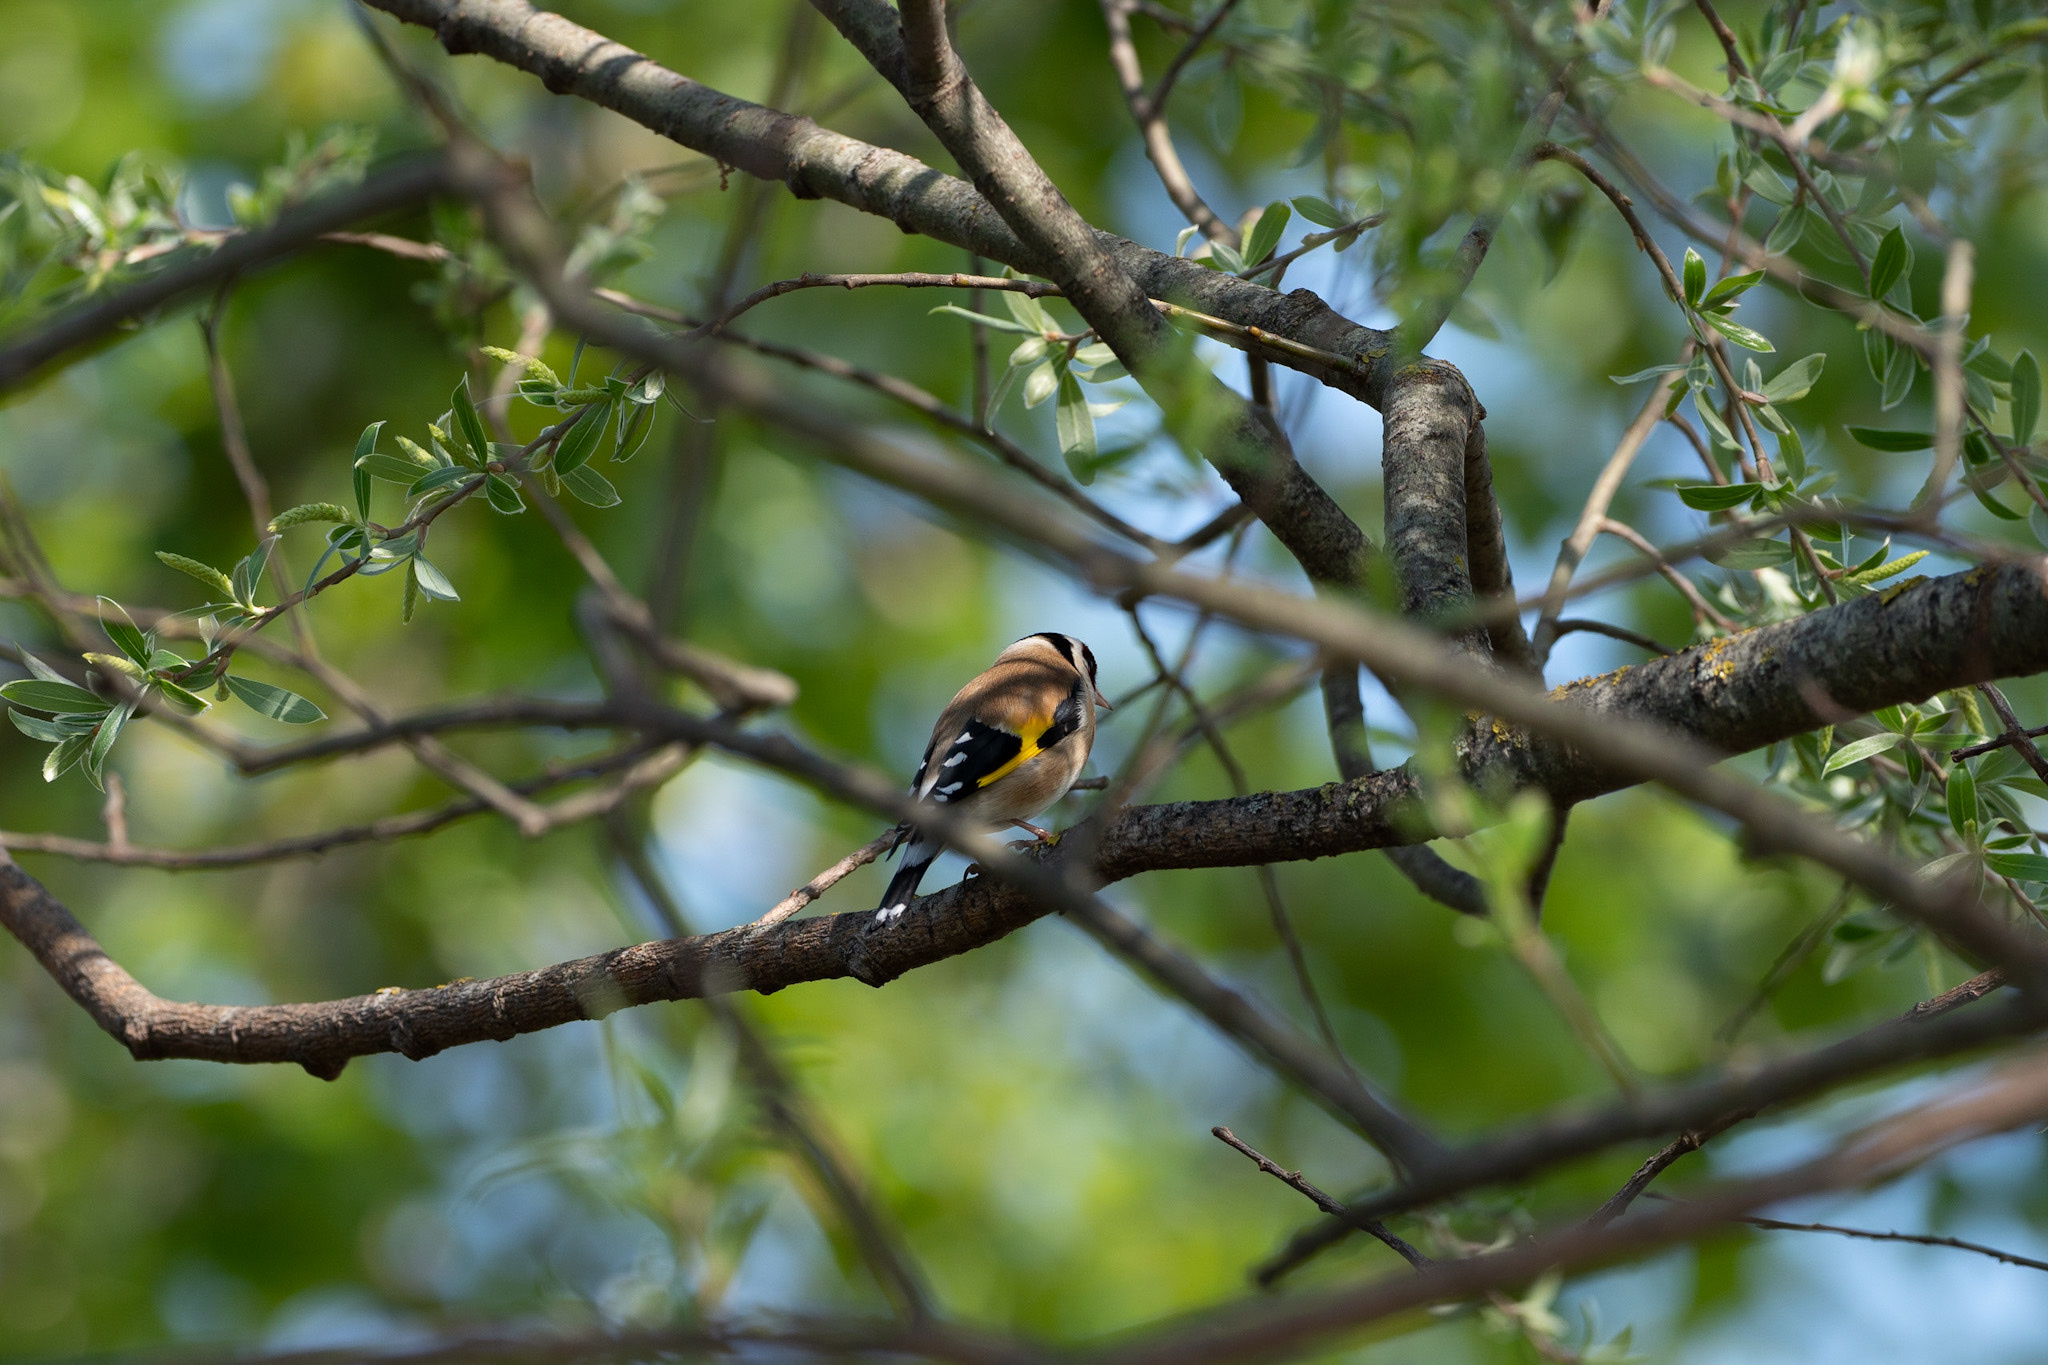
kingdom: Animalia
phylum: Chordata
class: Aves
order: Passeriformes
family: Fringillidae
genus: Carduelis
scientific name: Carduelis carduelis
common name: European goldfinch
